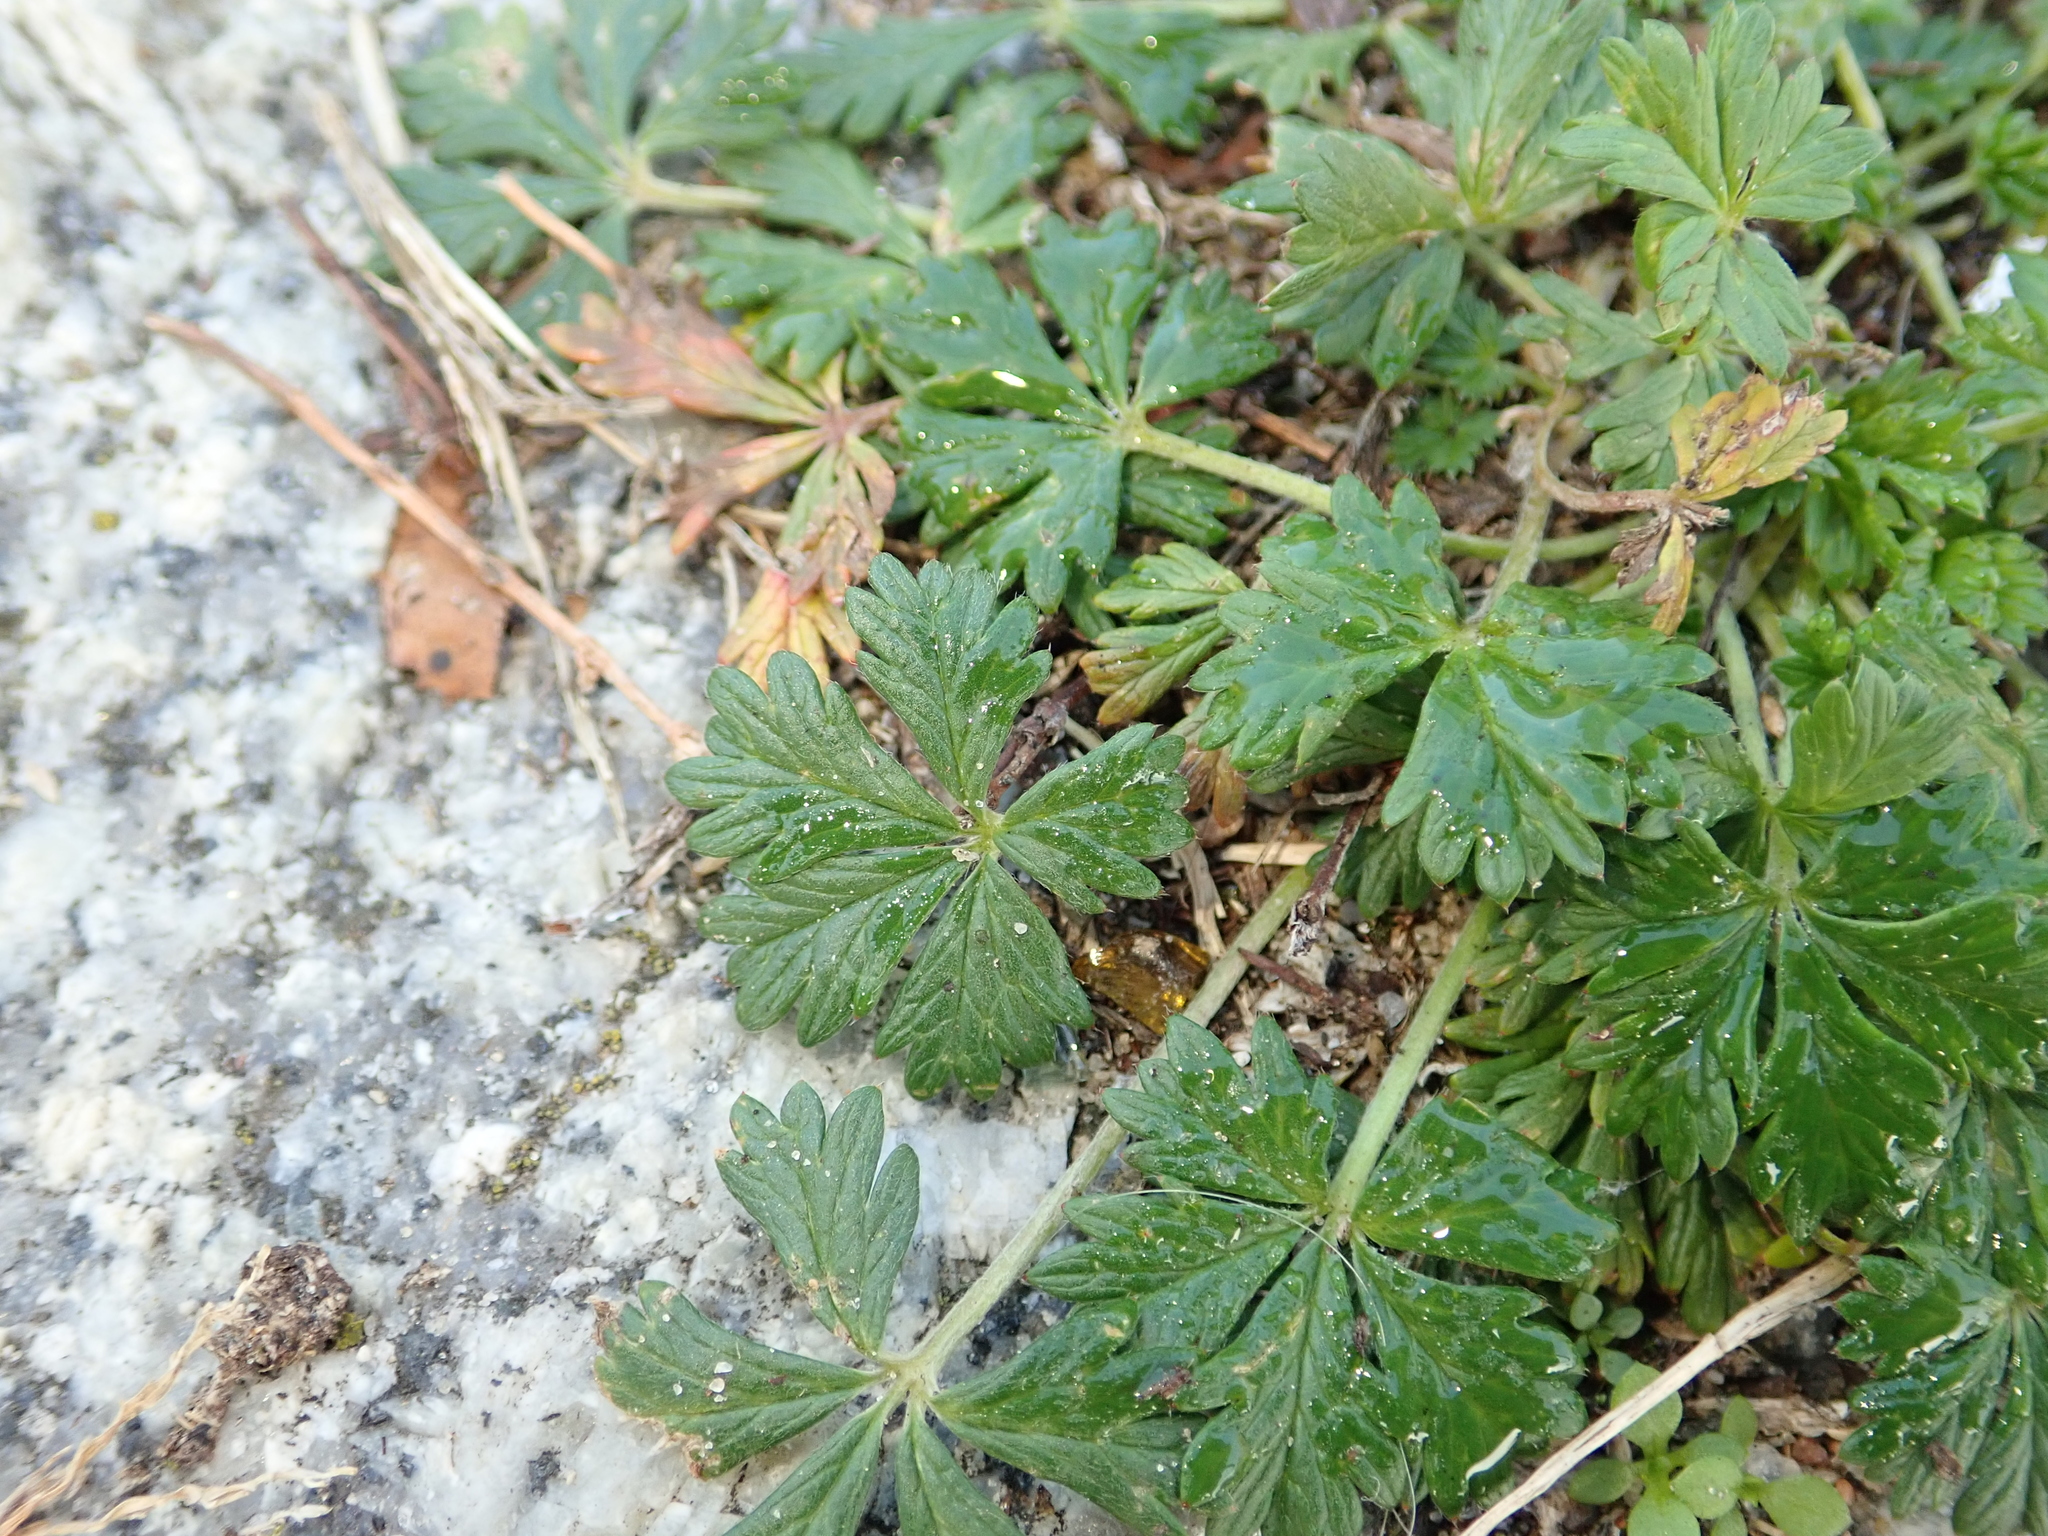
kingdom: Plantae
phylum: Tracheophyta
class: Magnoliopsida
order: Rosales
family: Rosaceae
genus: Potentilla
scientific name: Potentilla argentea
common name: Hoary cinquefoil
